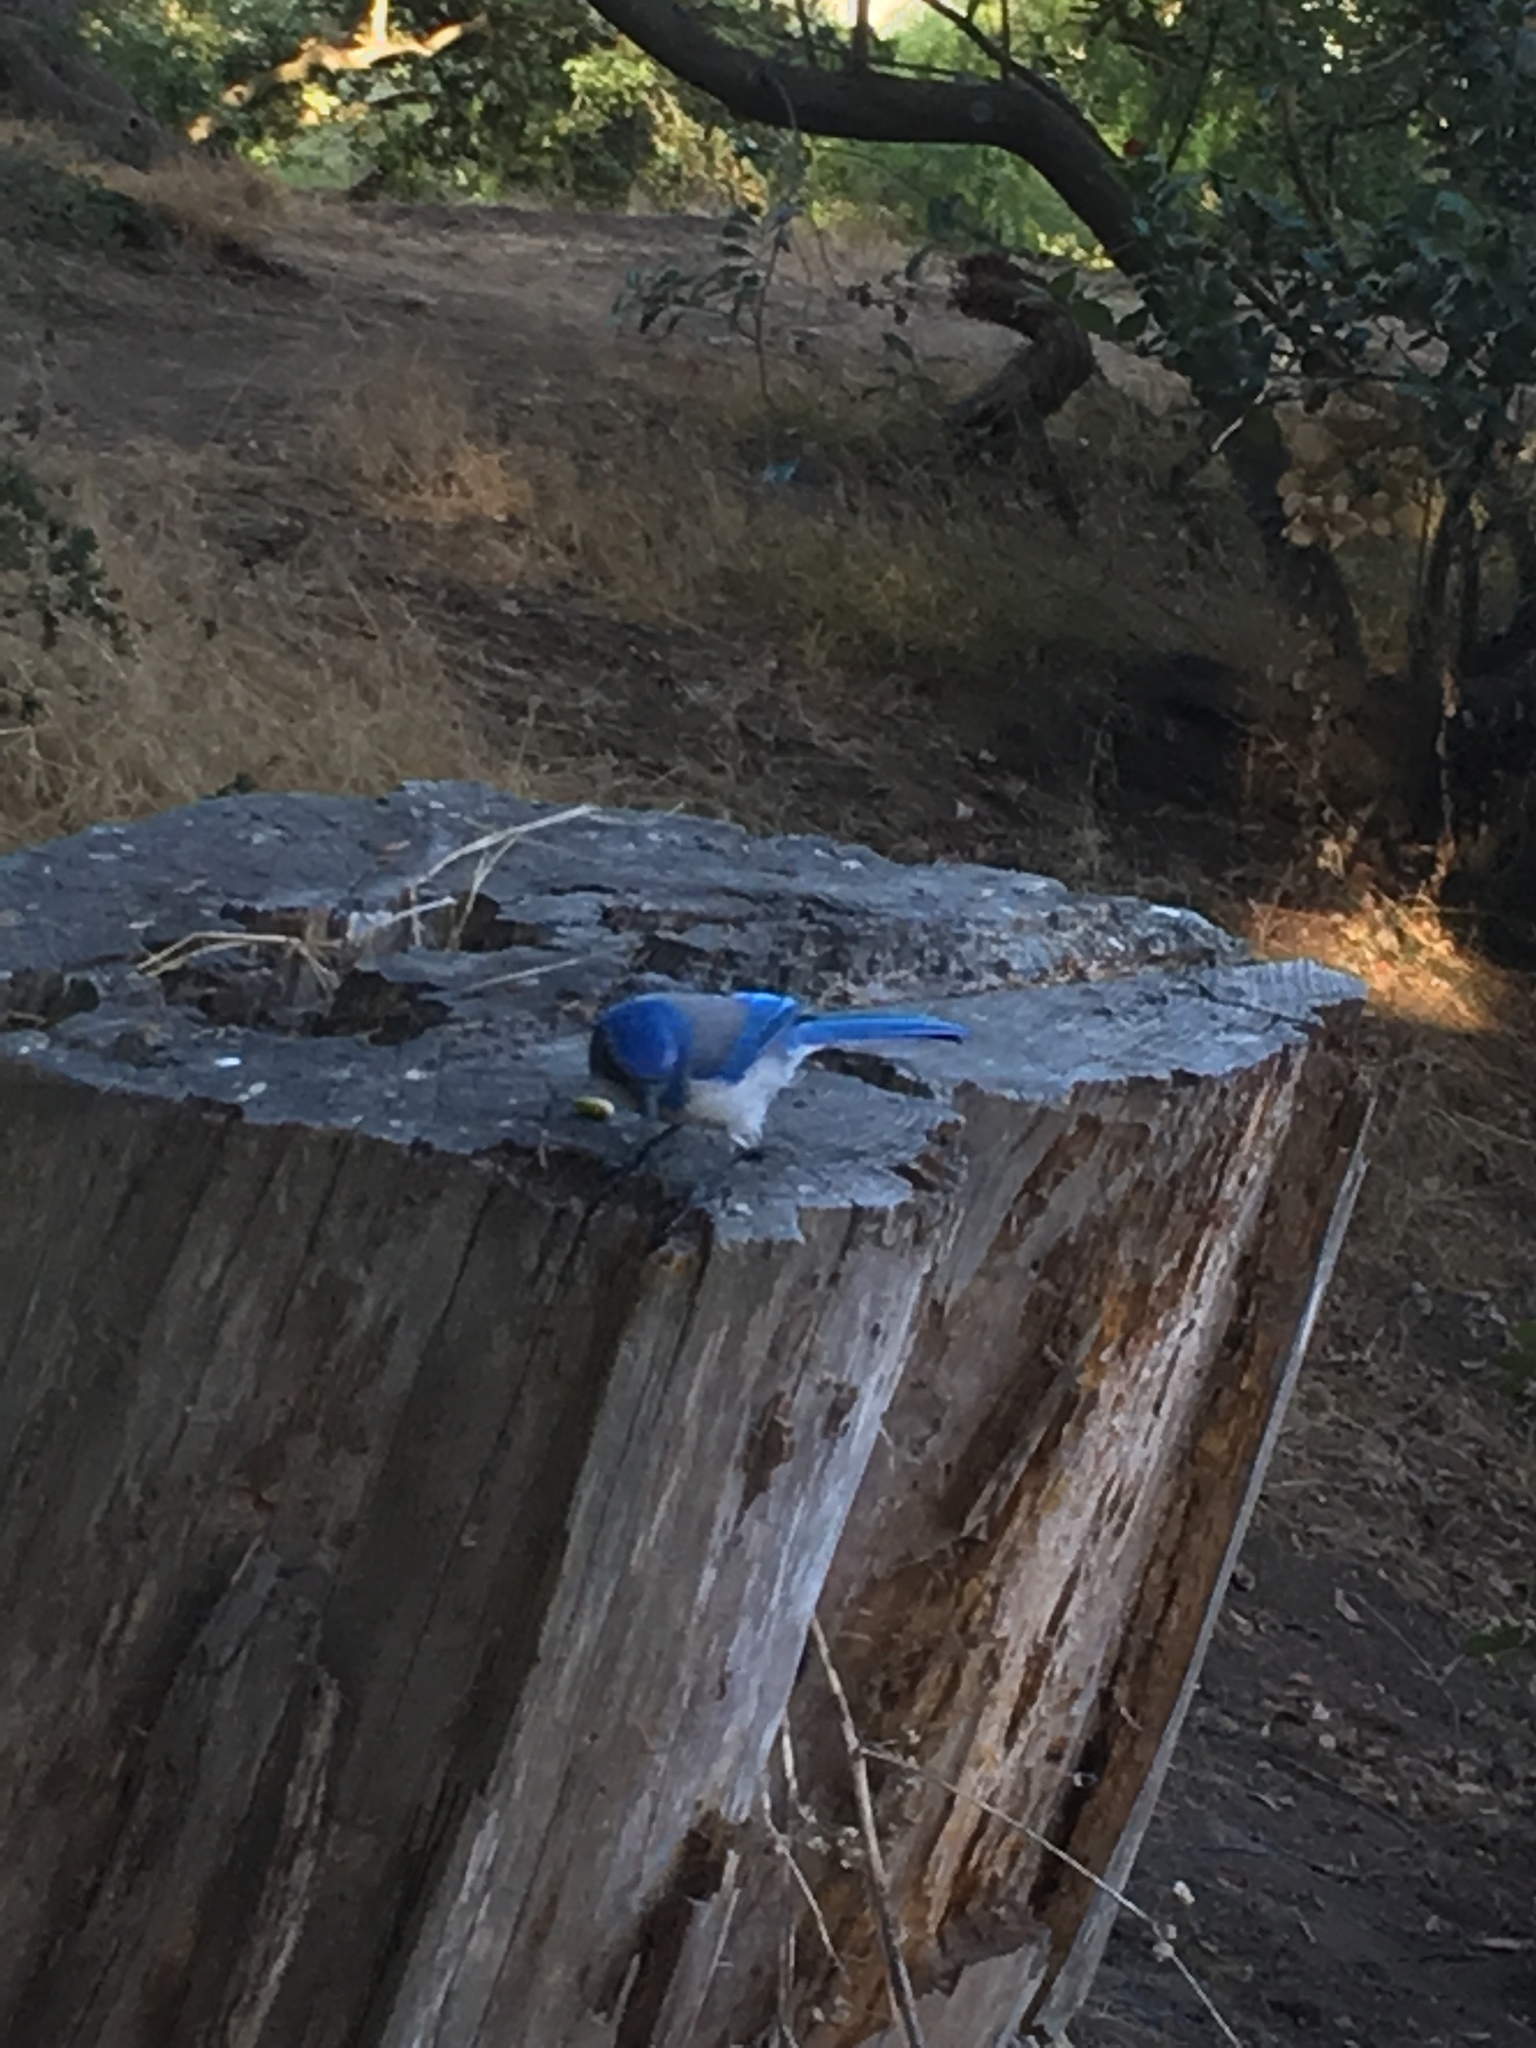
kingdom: Animalia
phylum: Chordata
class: Aves
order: Passeriformes
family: Corvidae
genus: Aphelocoma
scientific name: Aphelocoma californica
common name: California scrub-jay
